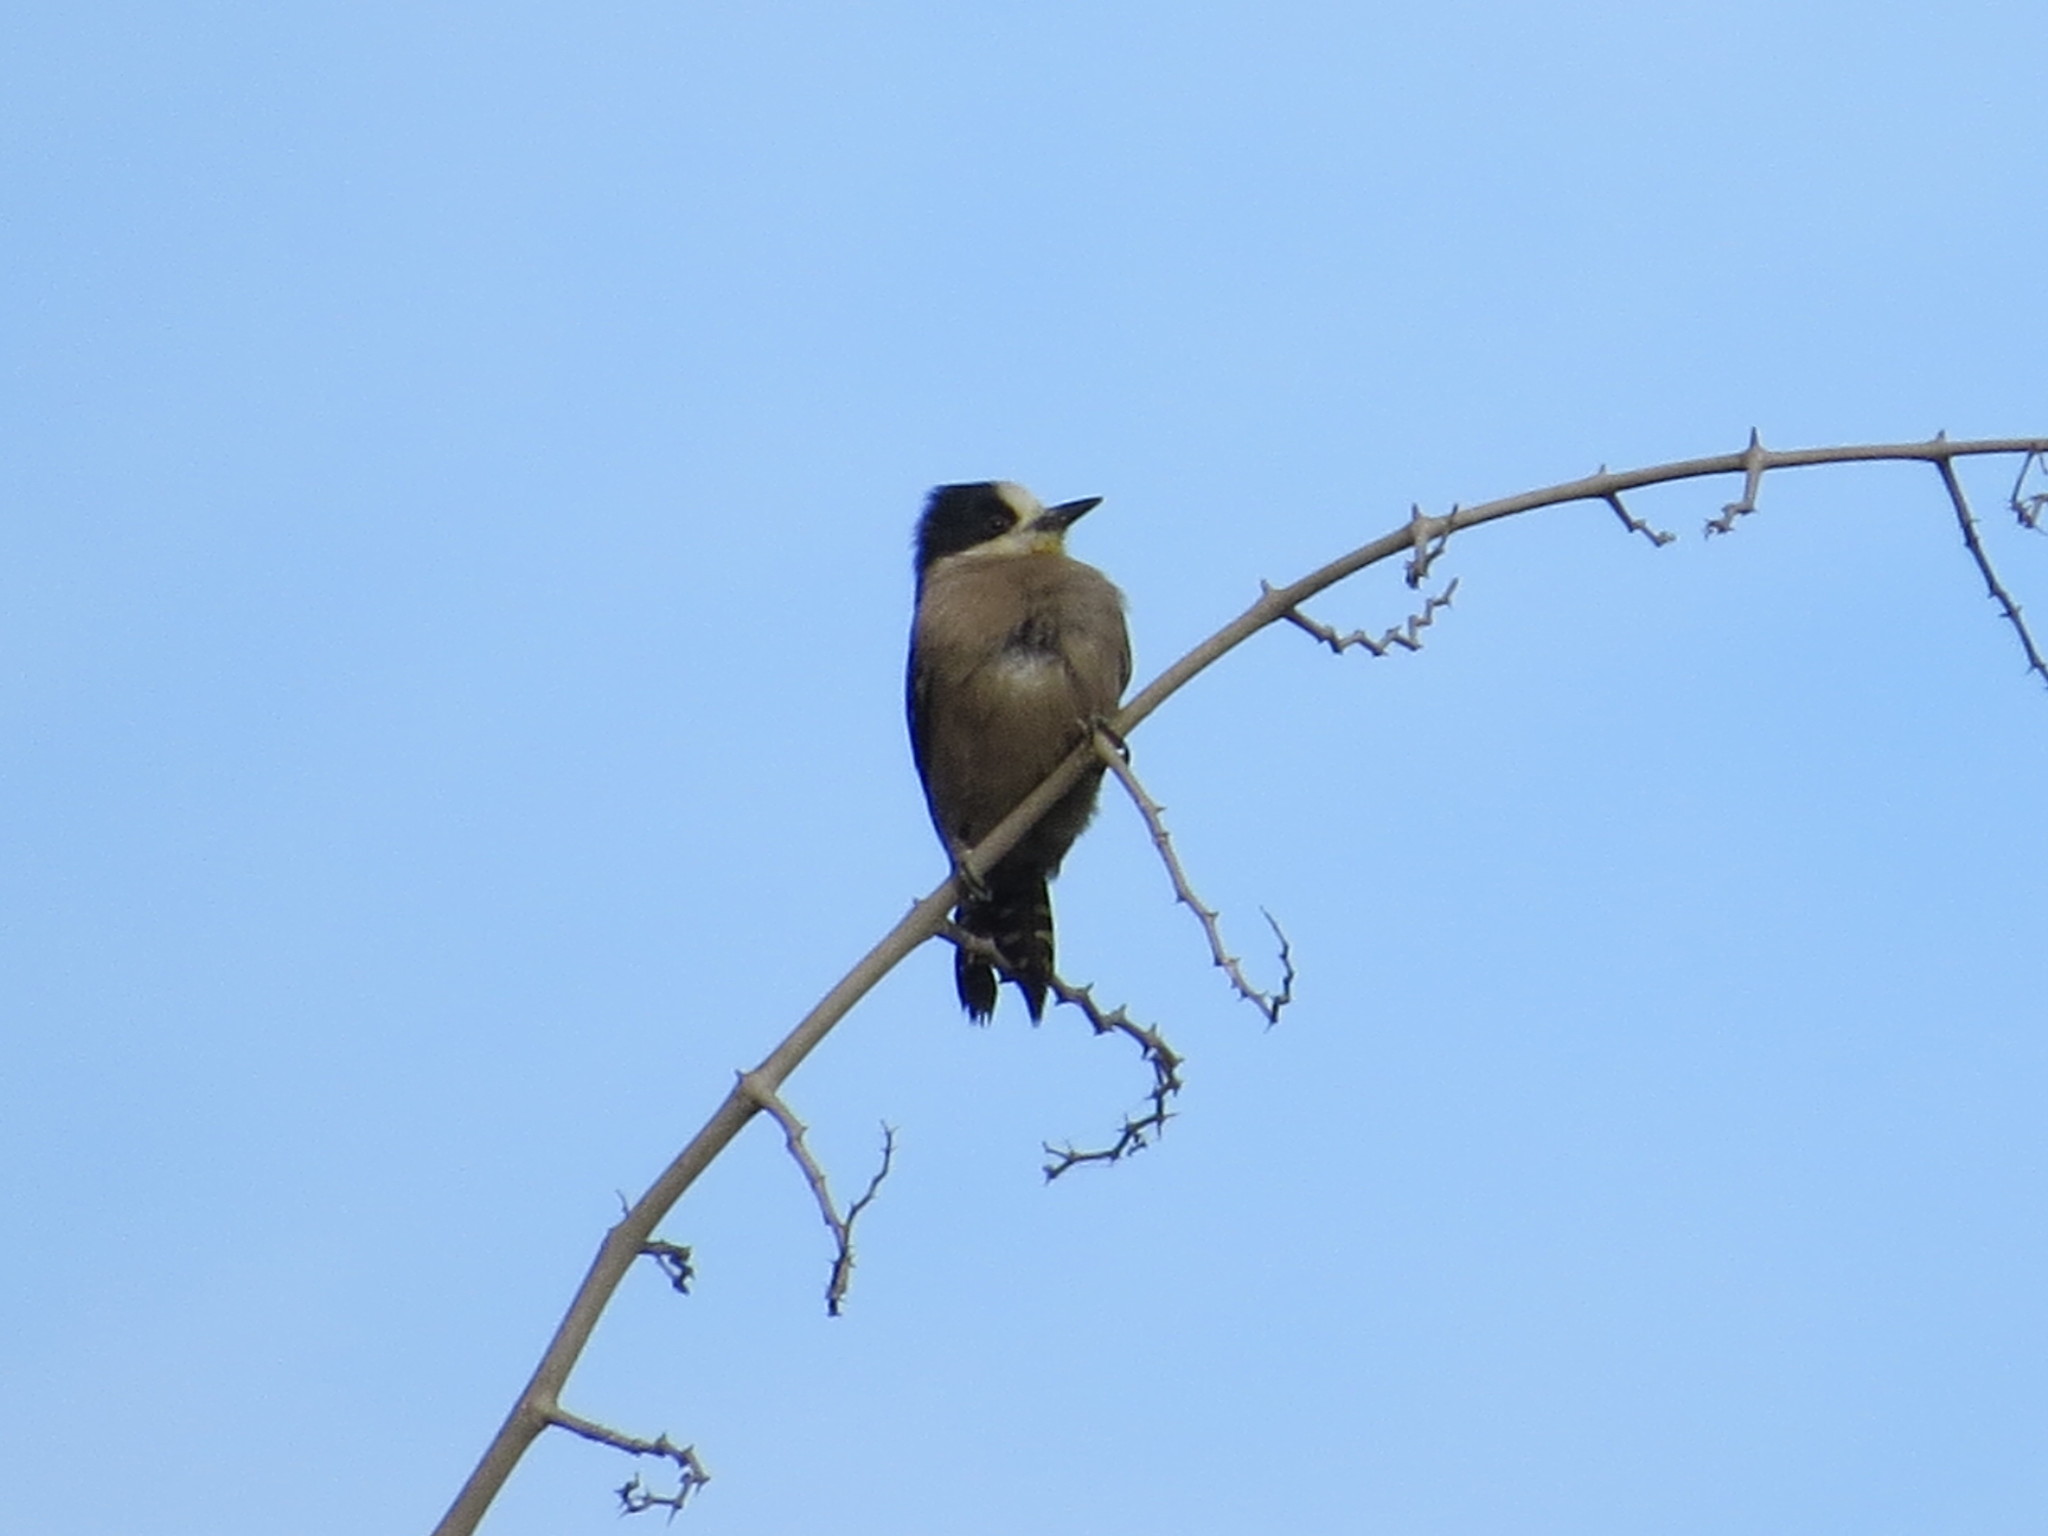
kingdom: Animalia
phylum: Chordata
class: Aves
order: Piciformes
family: Picidae
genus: Melanerpes
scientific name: Melanerpes cactorum
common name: White-fronted woodpecker
